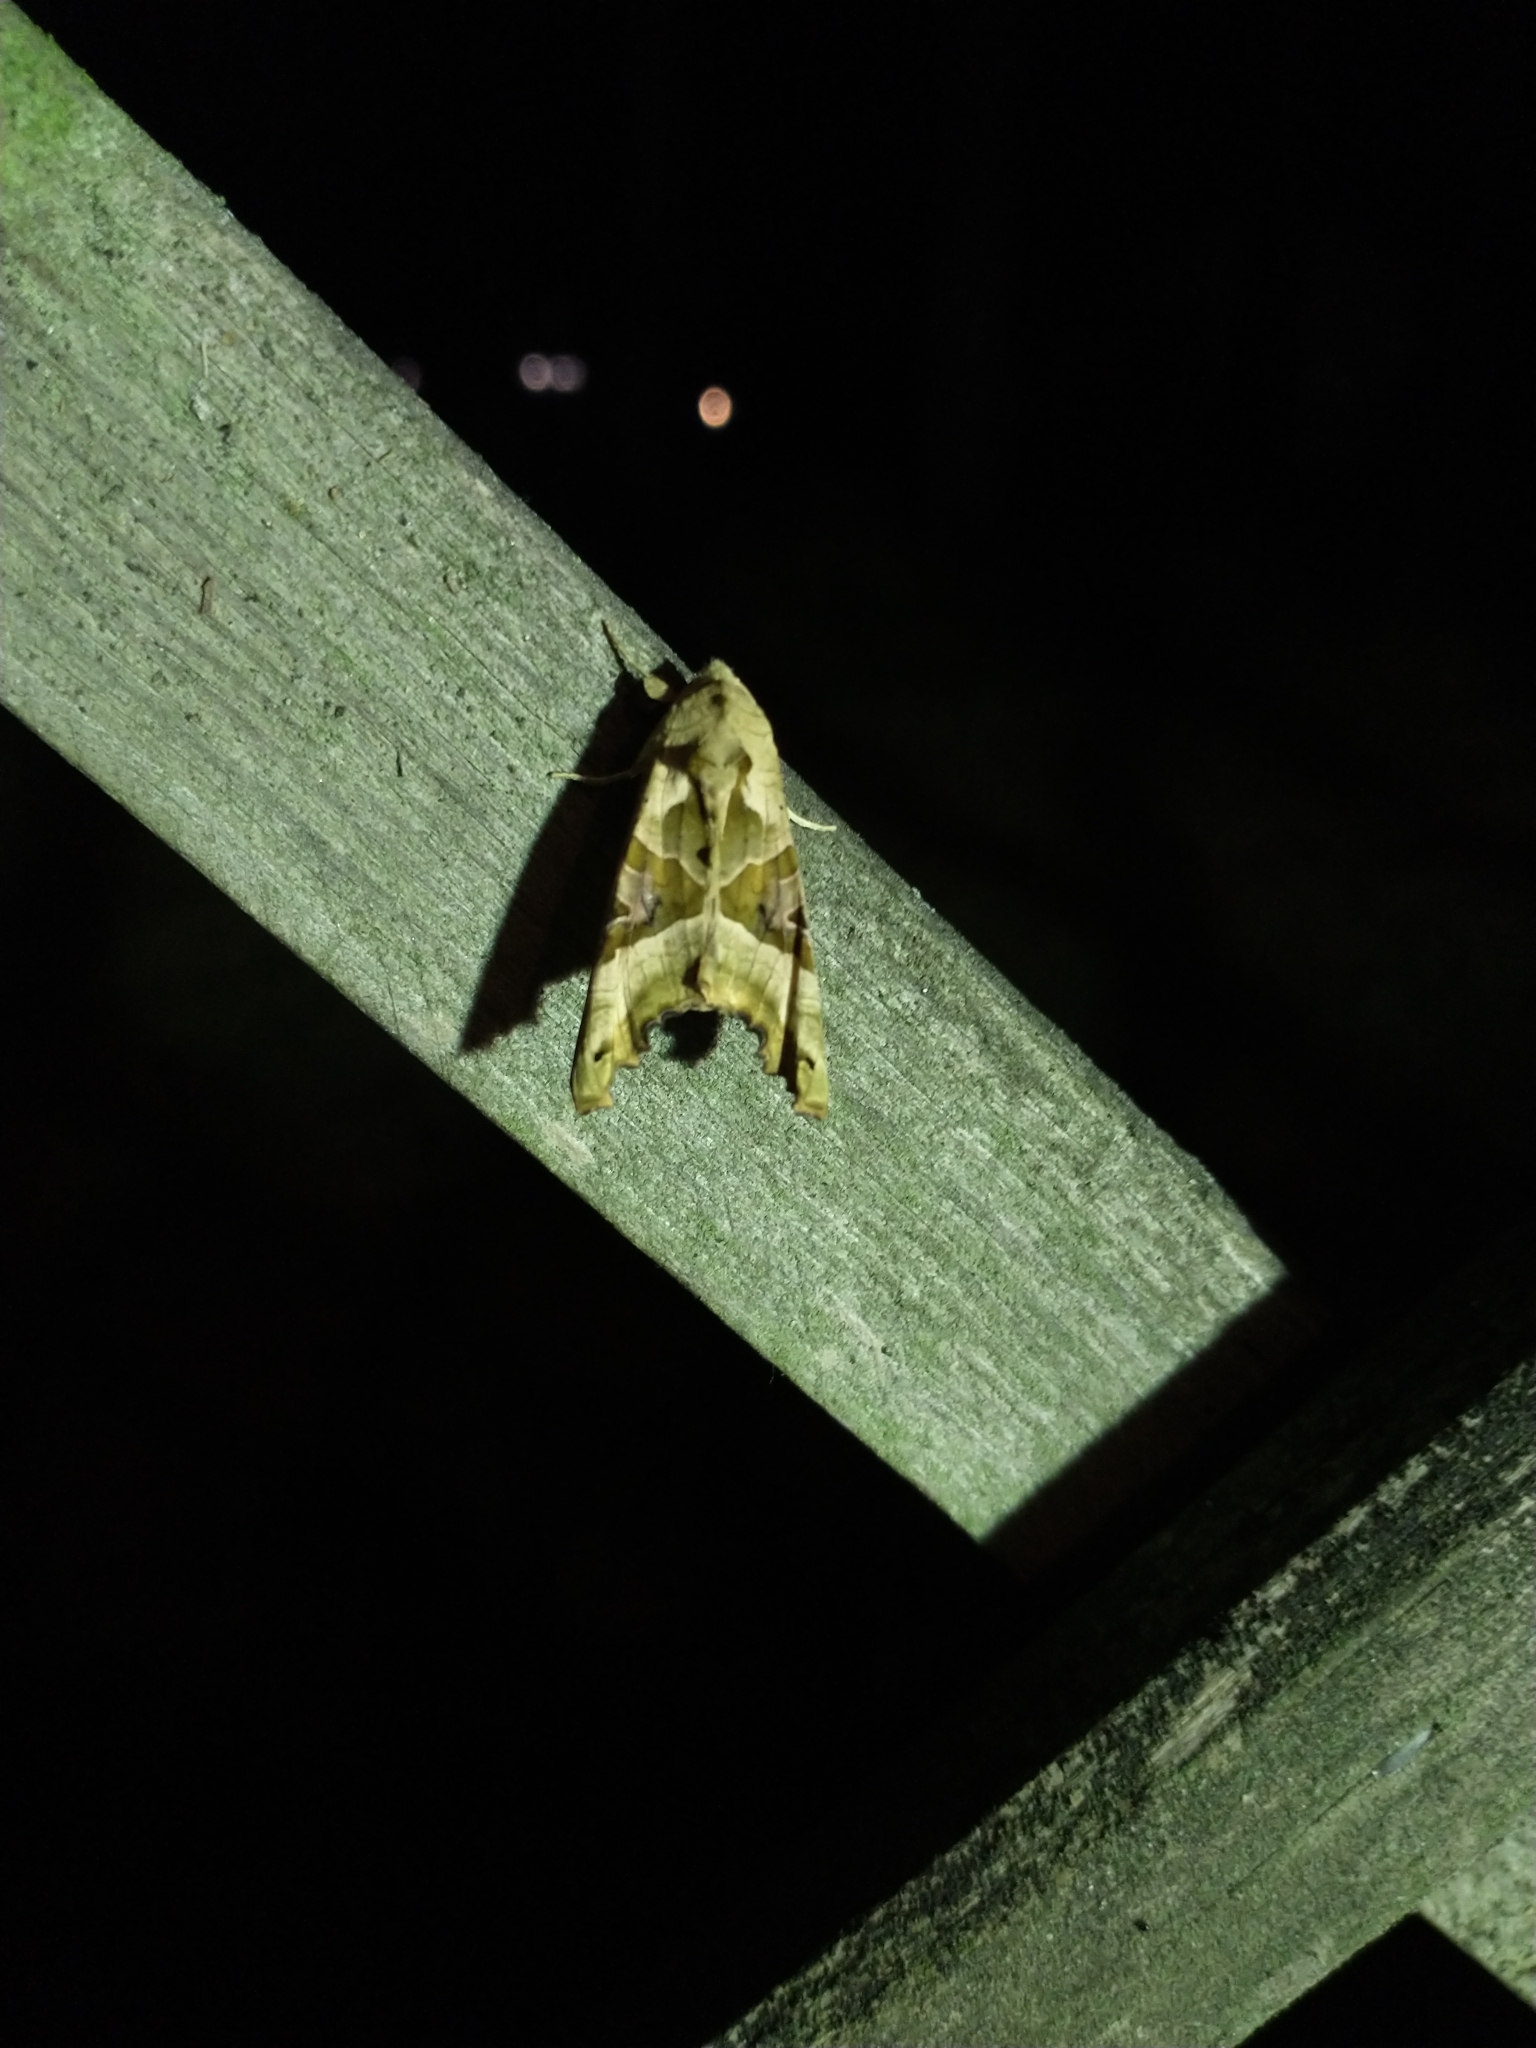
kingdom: Animalia
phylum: Arthropoda
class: Insecta
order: Lepidoptera
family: Noctuidae
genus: Phlogophora
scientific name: Phlogophora meticulosa
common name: Angle shades
